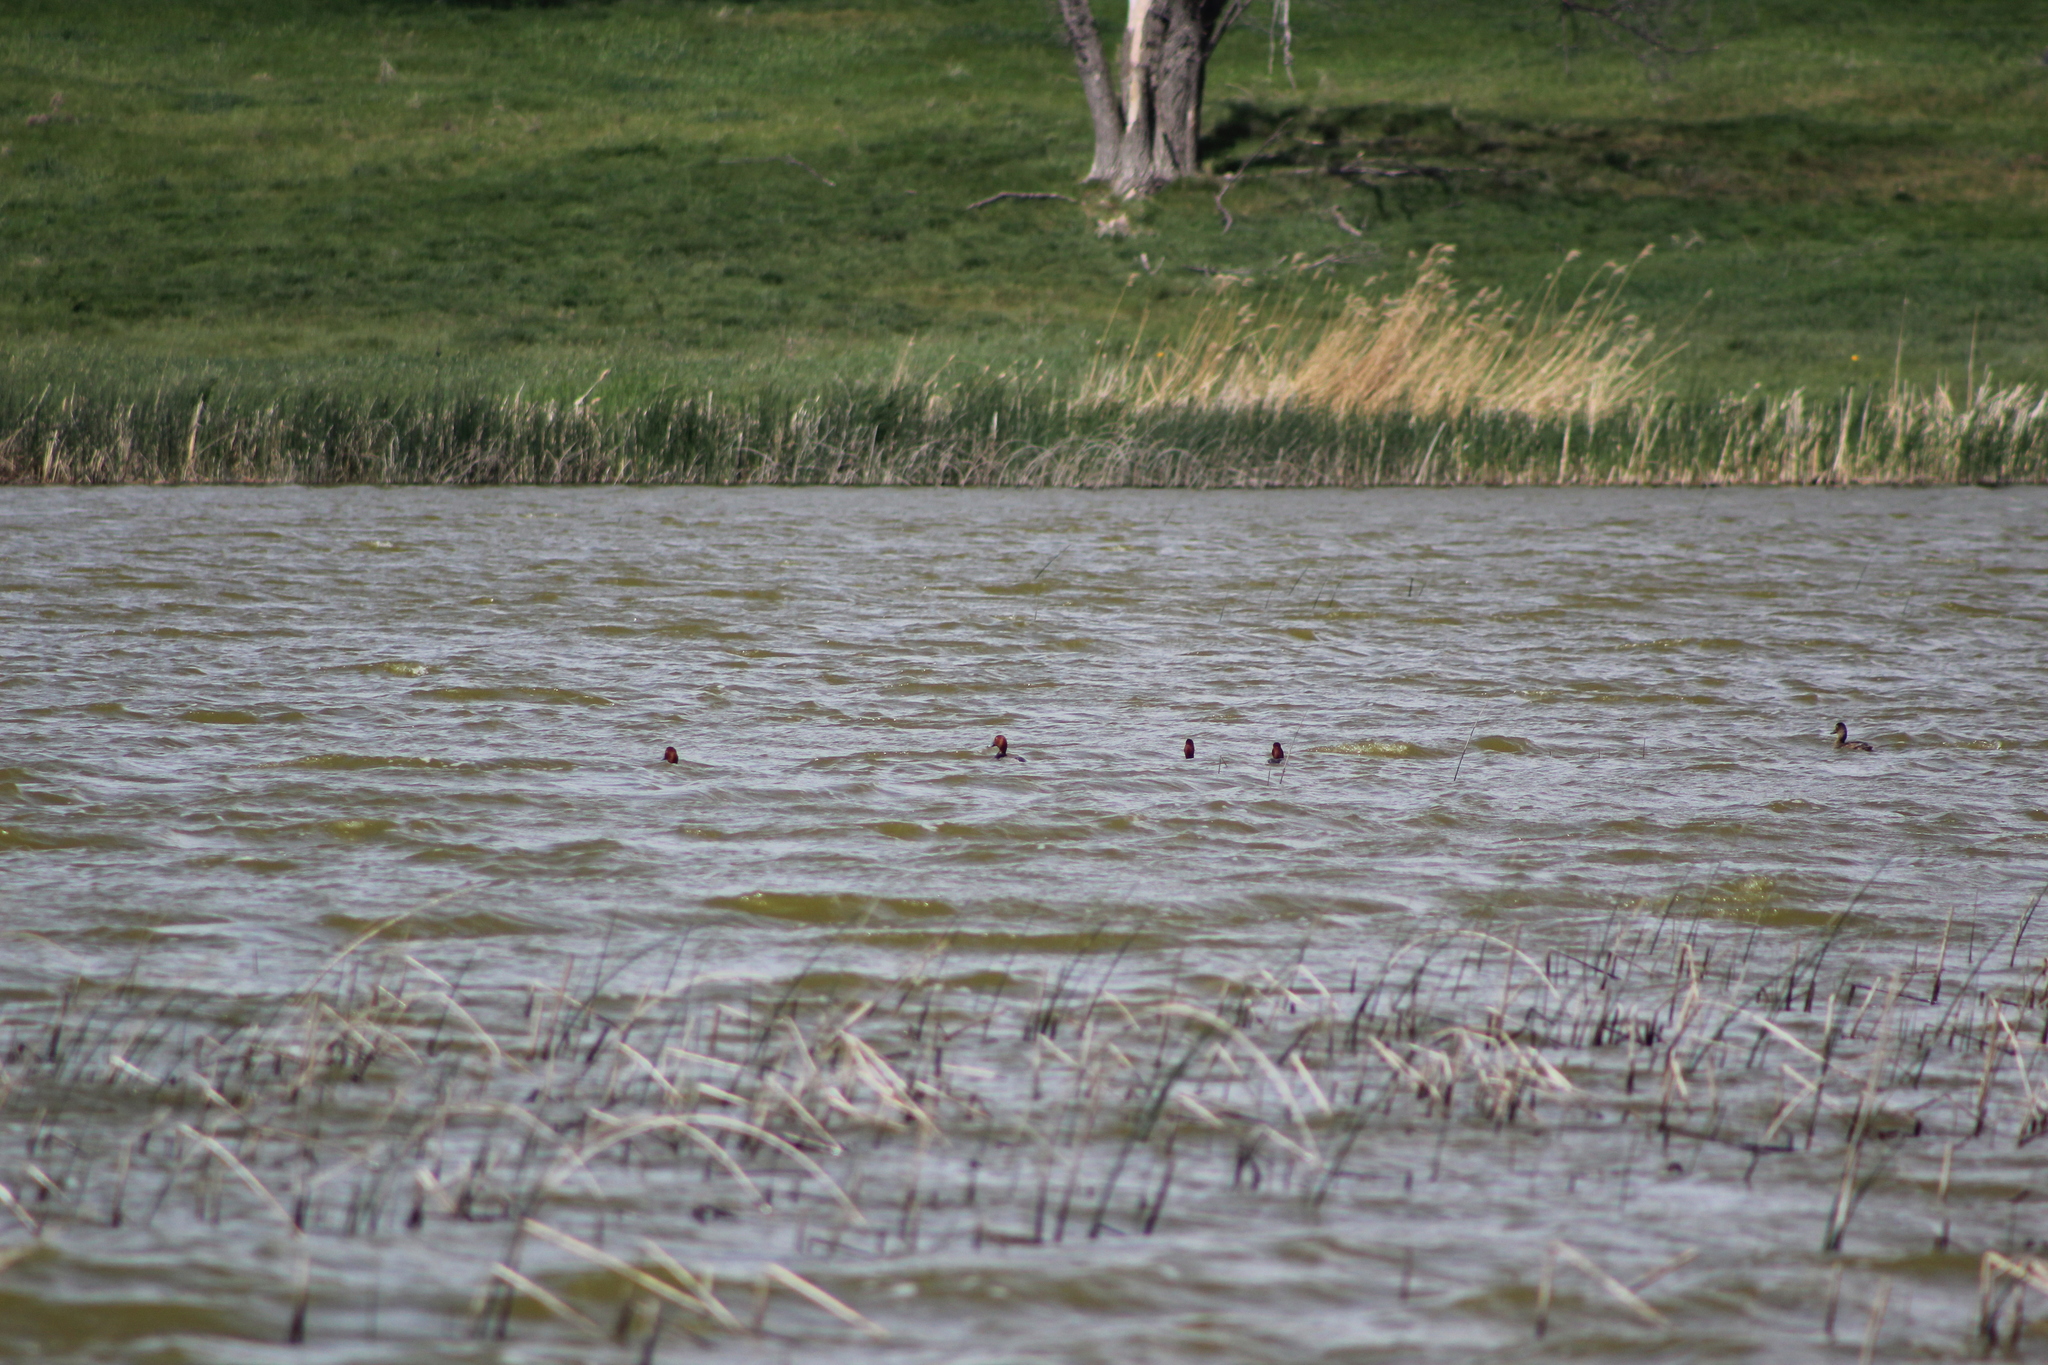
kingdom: Animalia
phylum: Chordata
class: Aves
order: Anseriformes
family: Anatidae
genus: Aythya
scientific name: Aythya americana
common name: Redhead
